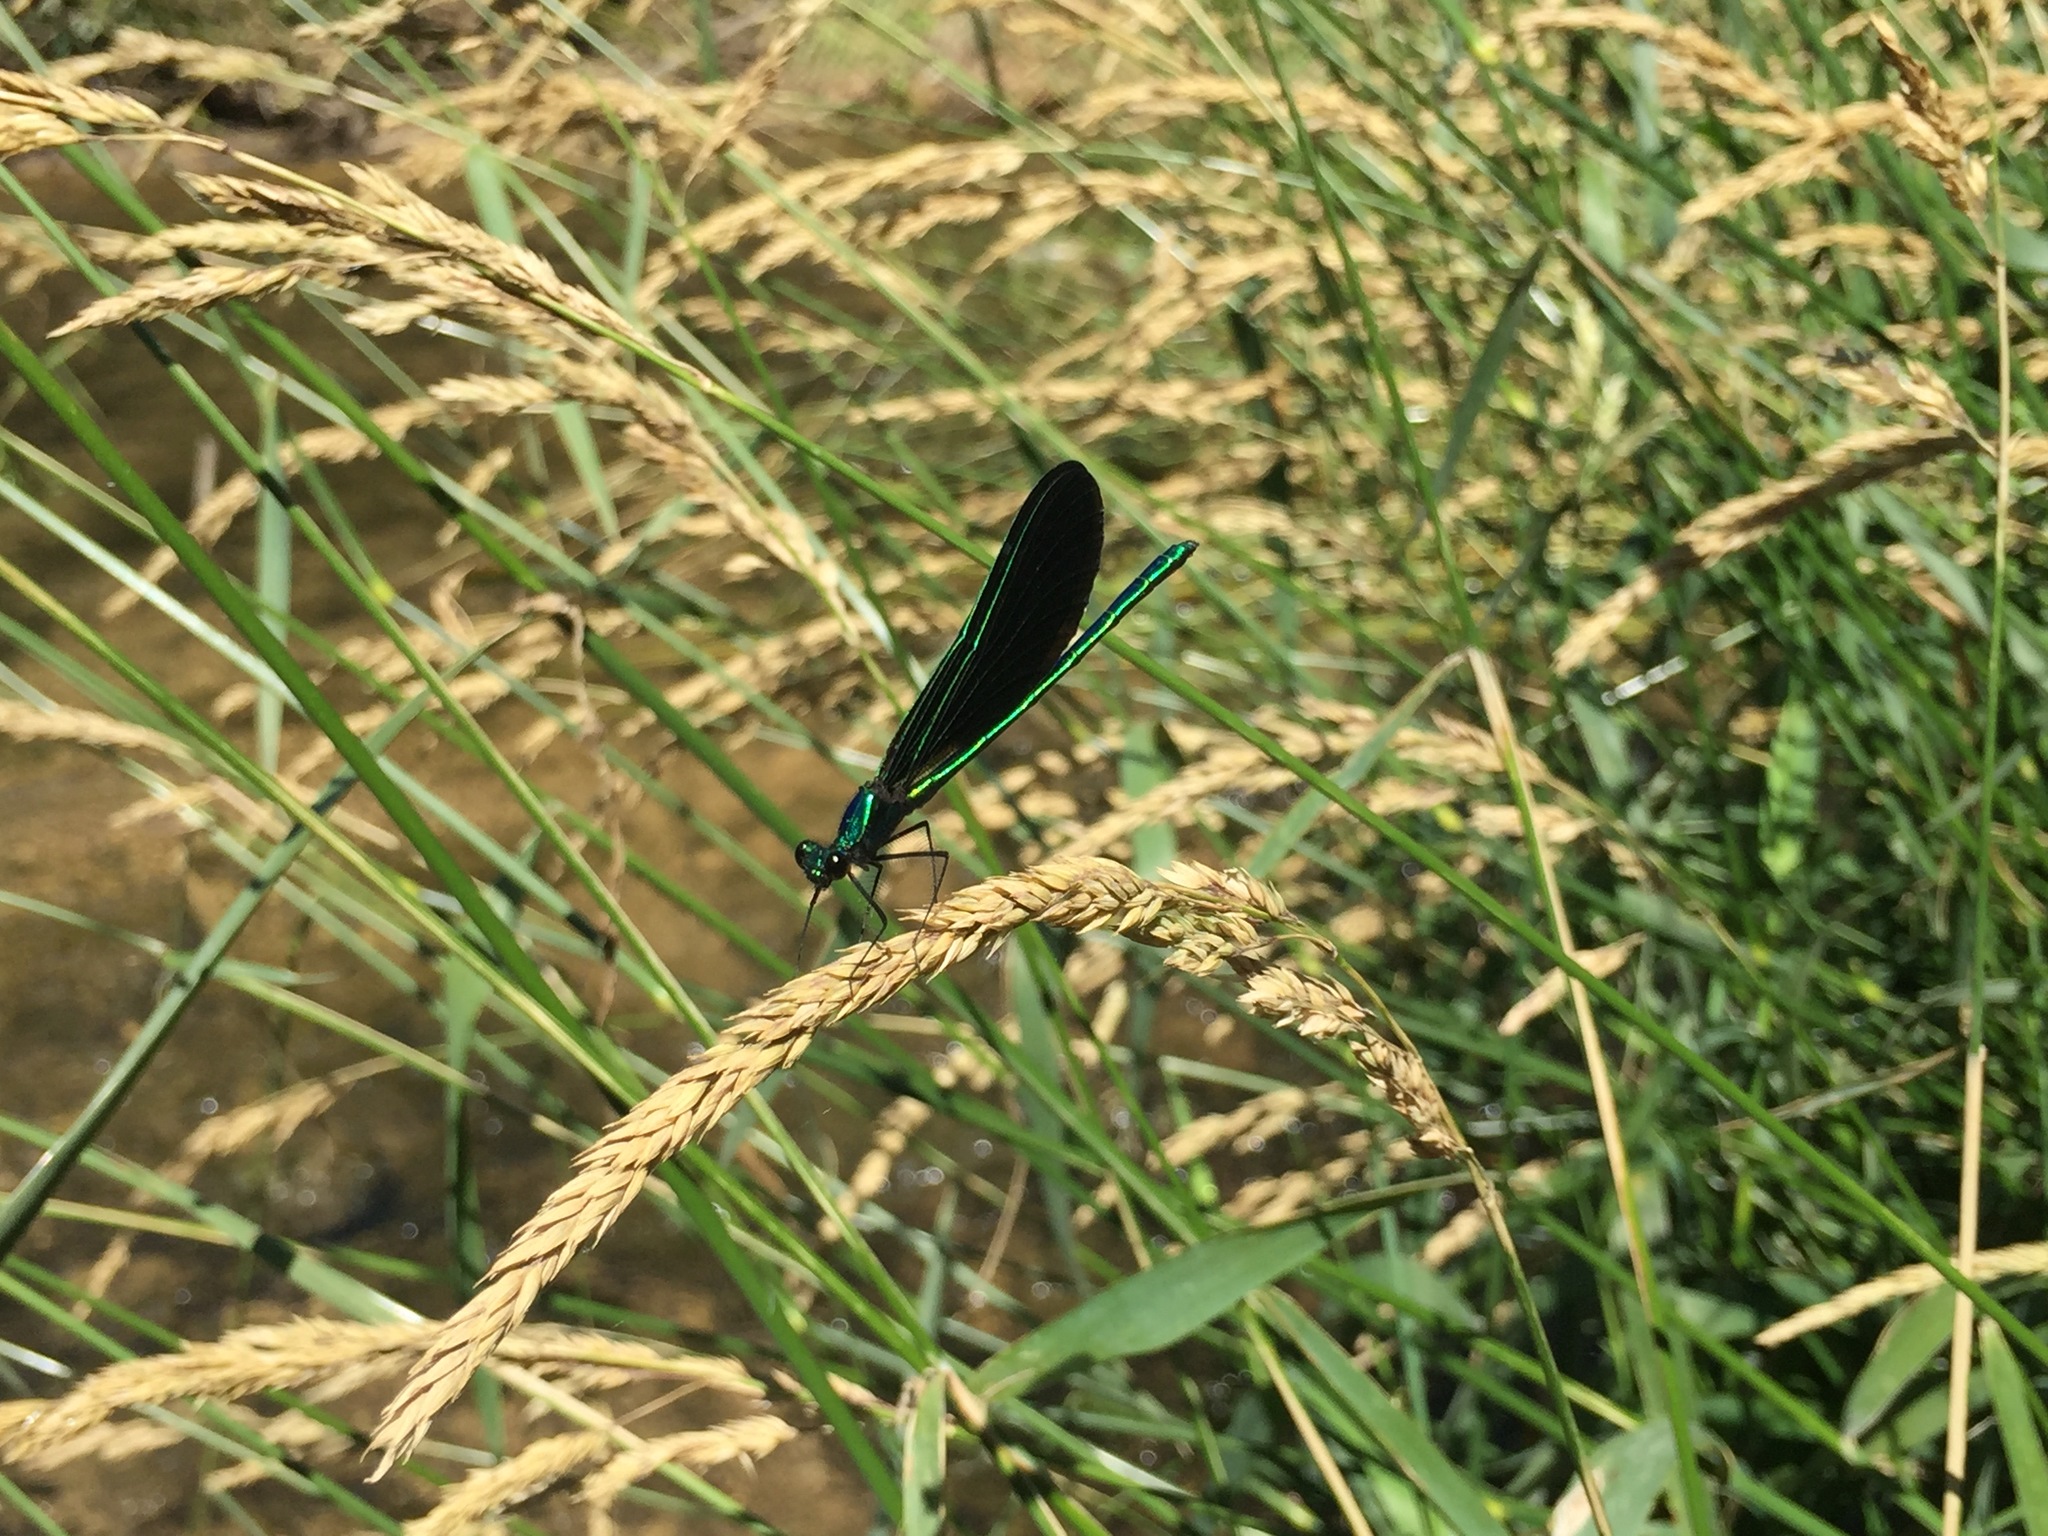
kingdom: Animalia
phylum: Arthropoda
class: Insecta
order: Odonata
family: Calopterygidae
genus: Calopteryx
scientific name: Calopteryx maculata
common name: Ebony jewelwing
